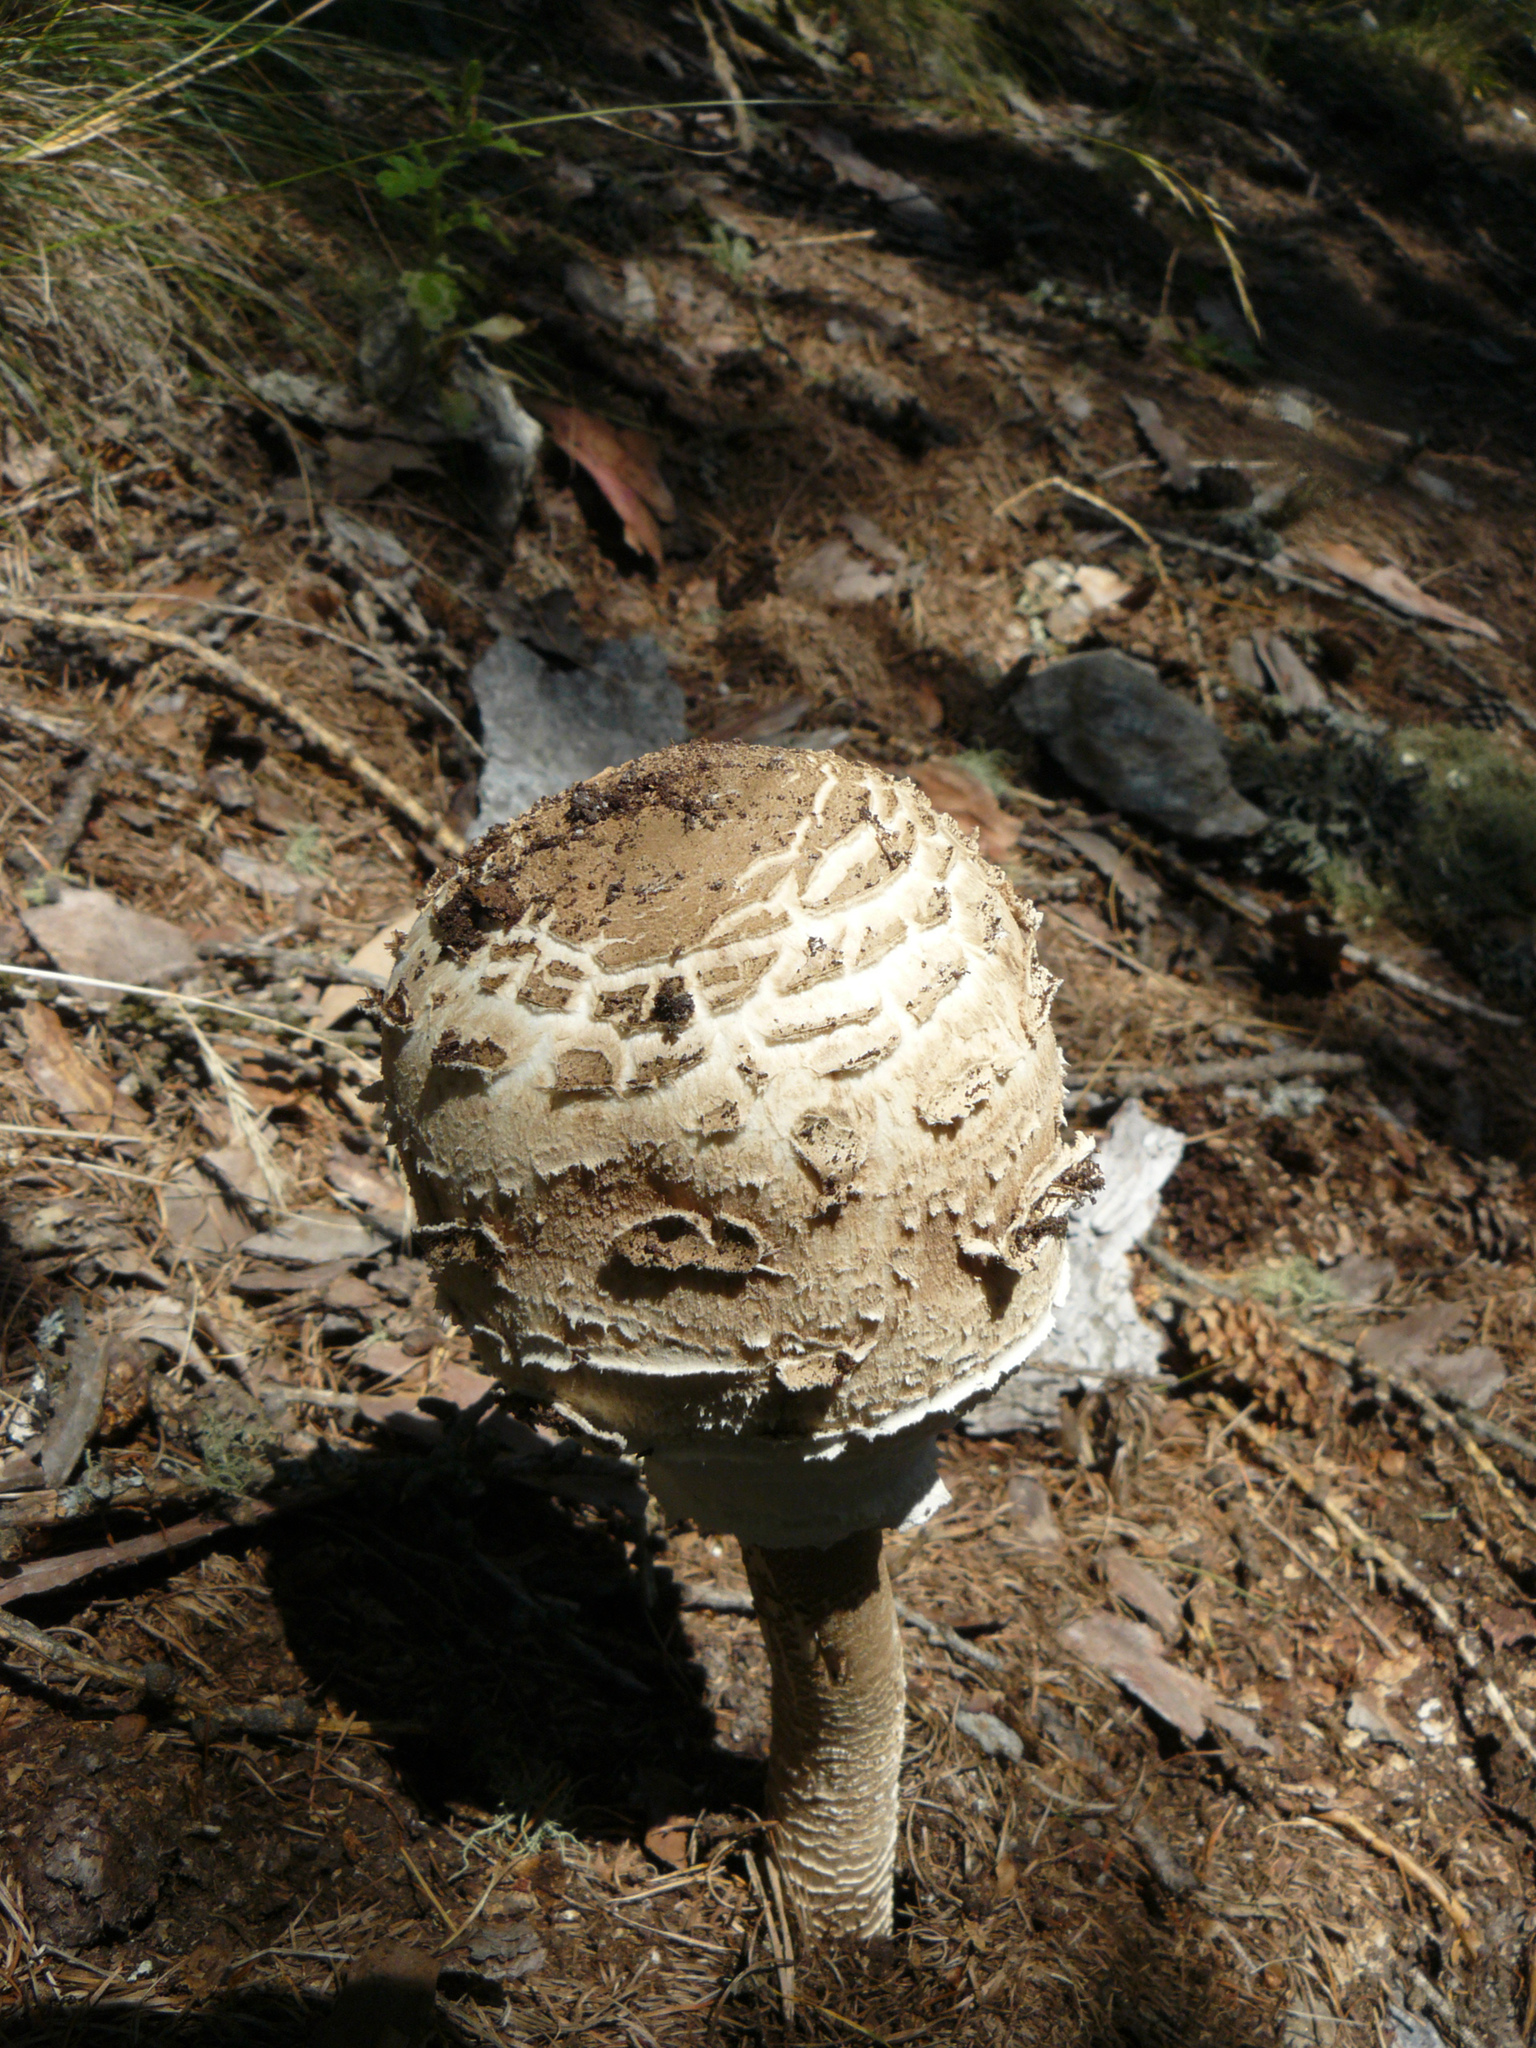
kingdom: Fungi
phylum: Basidiomycota
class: Agaricomycetes
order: Agaricales
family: Agaricaceae
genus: Macrolepiota
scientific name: Macrolepiota procera
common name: Parasol
